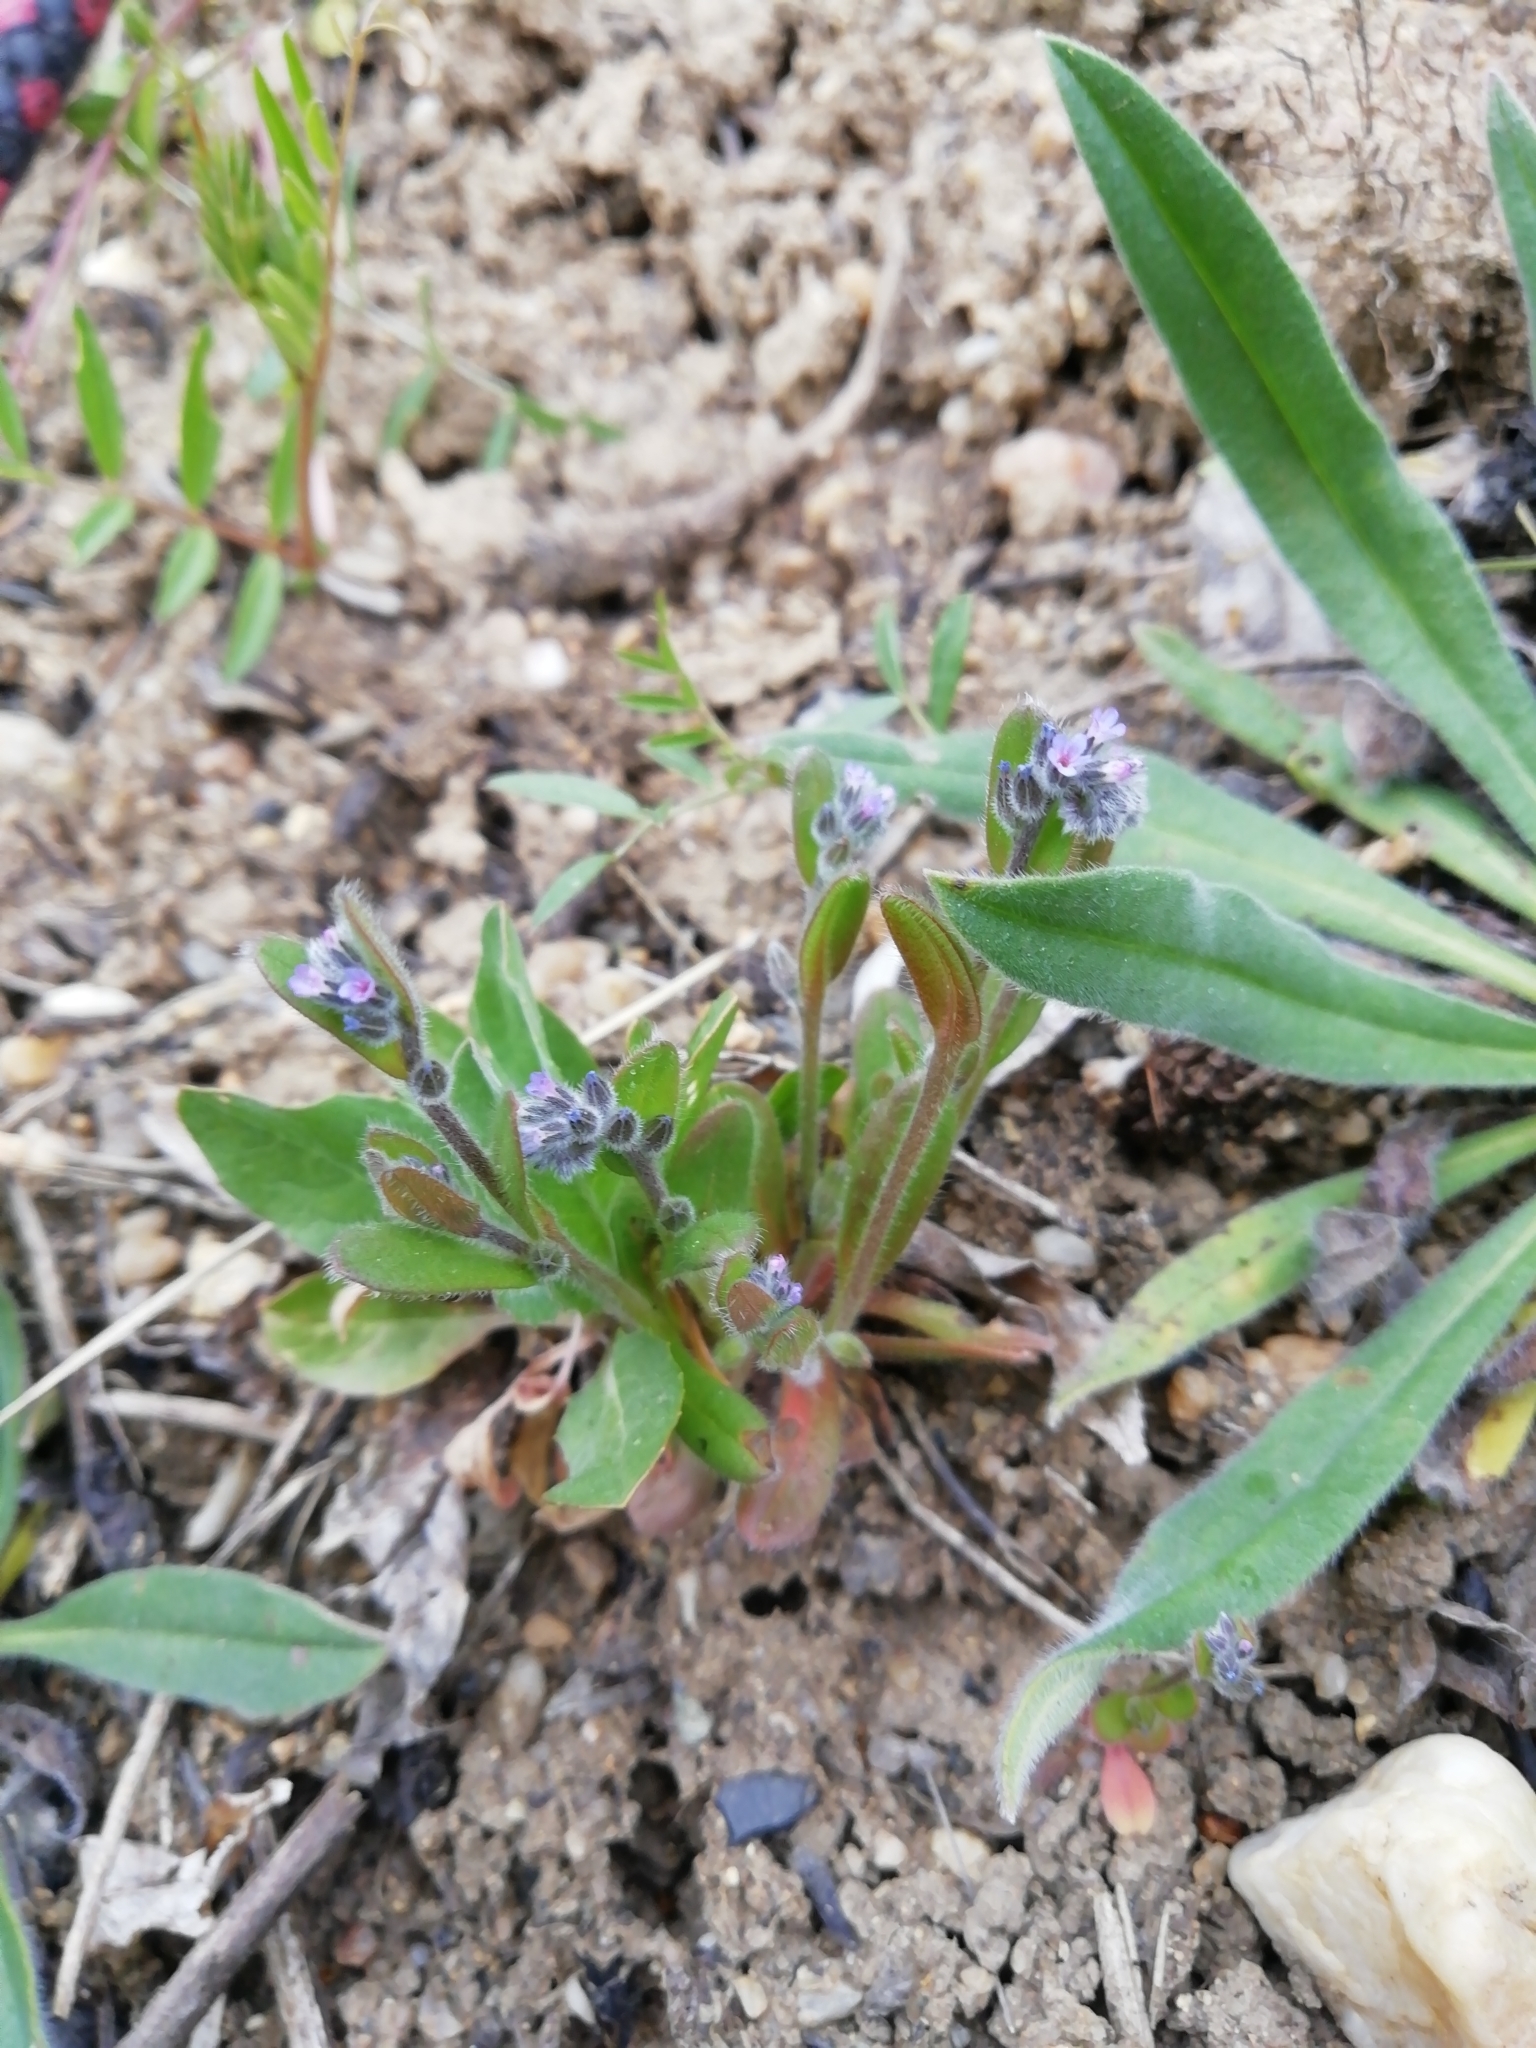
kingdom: Plantae
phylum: Tracheophyta
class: Magnoliopsida
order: Boraginales
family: Boraginaceae
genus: Myosotis
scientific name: Myosotis stricta
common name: Strict forget-me-not
